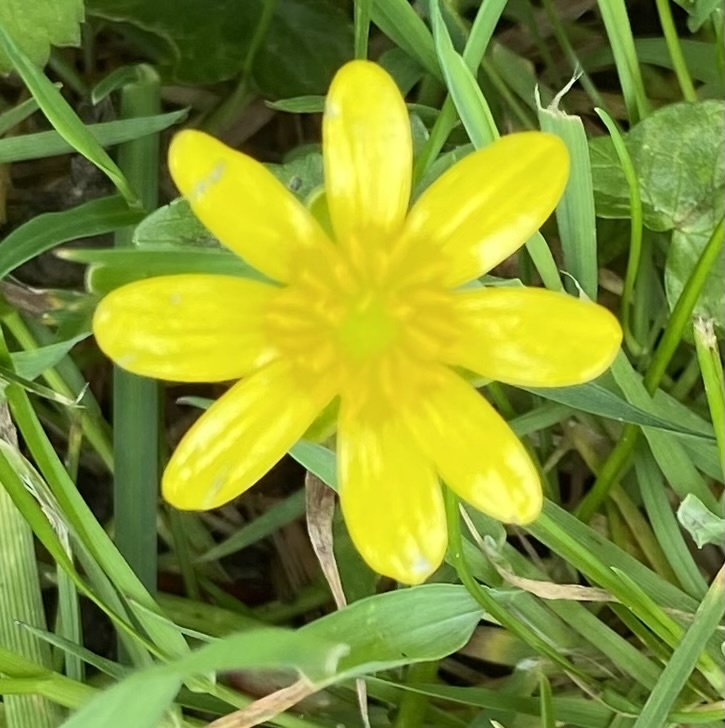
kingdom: Plantae
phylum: Tracheophyta
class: Magnoliopsida
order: Ranunculales
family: Ranunculaceae
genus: Ficaria
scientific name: Ficaria verna
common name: Lesser celandine
